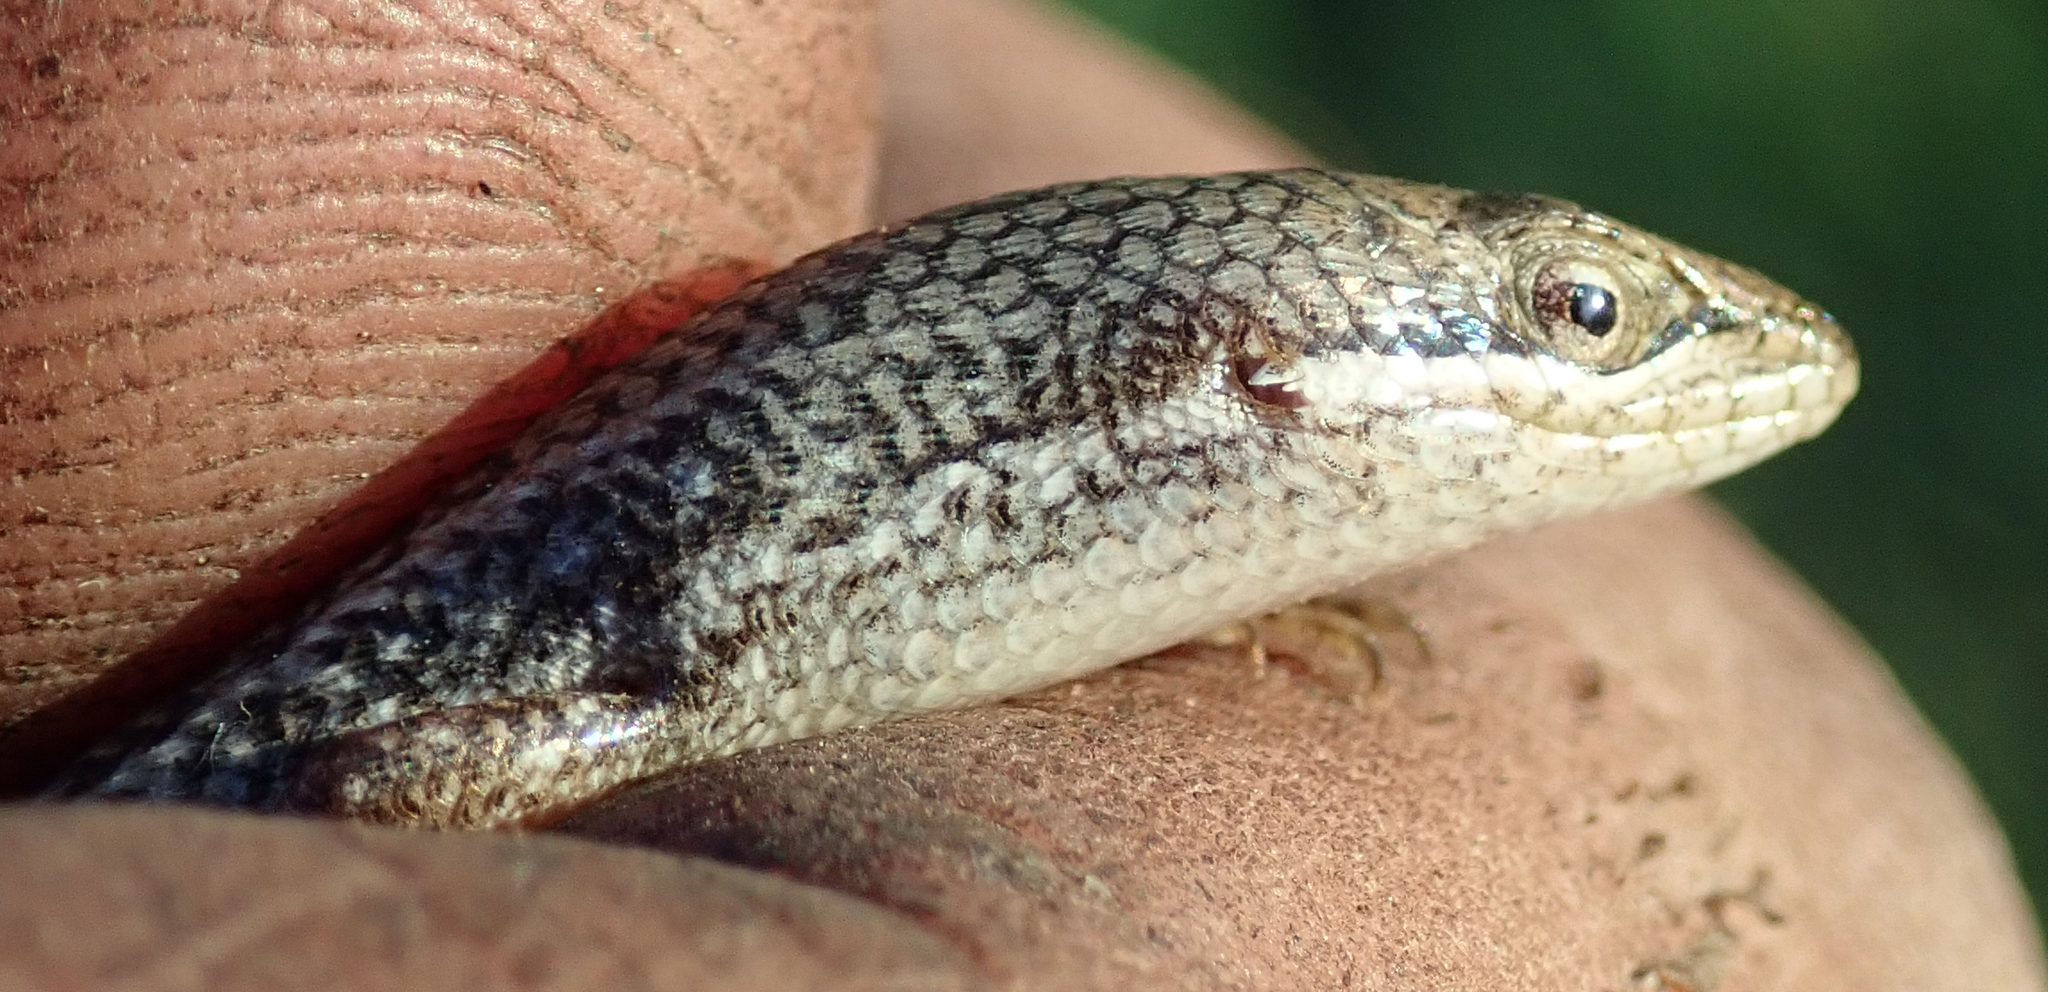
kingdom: Animalia
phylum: Chordata
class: Squamata
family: Scincidae
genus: Trachylepis
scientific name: Trachylepis varia
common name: Eastern variable skink
